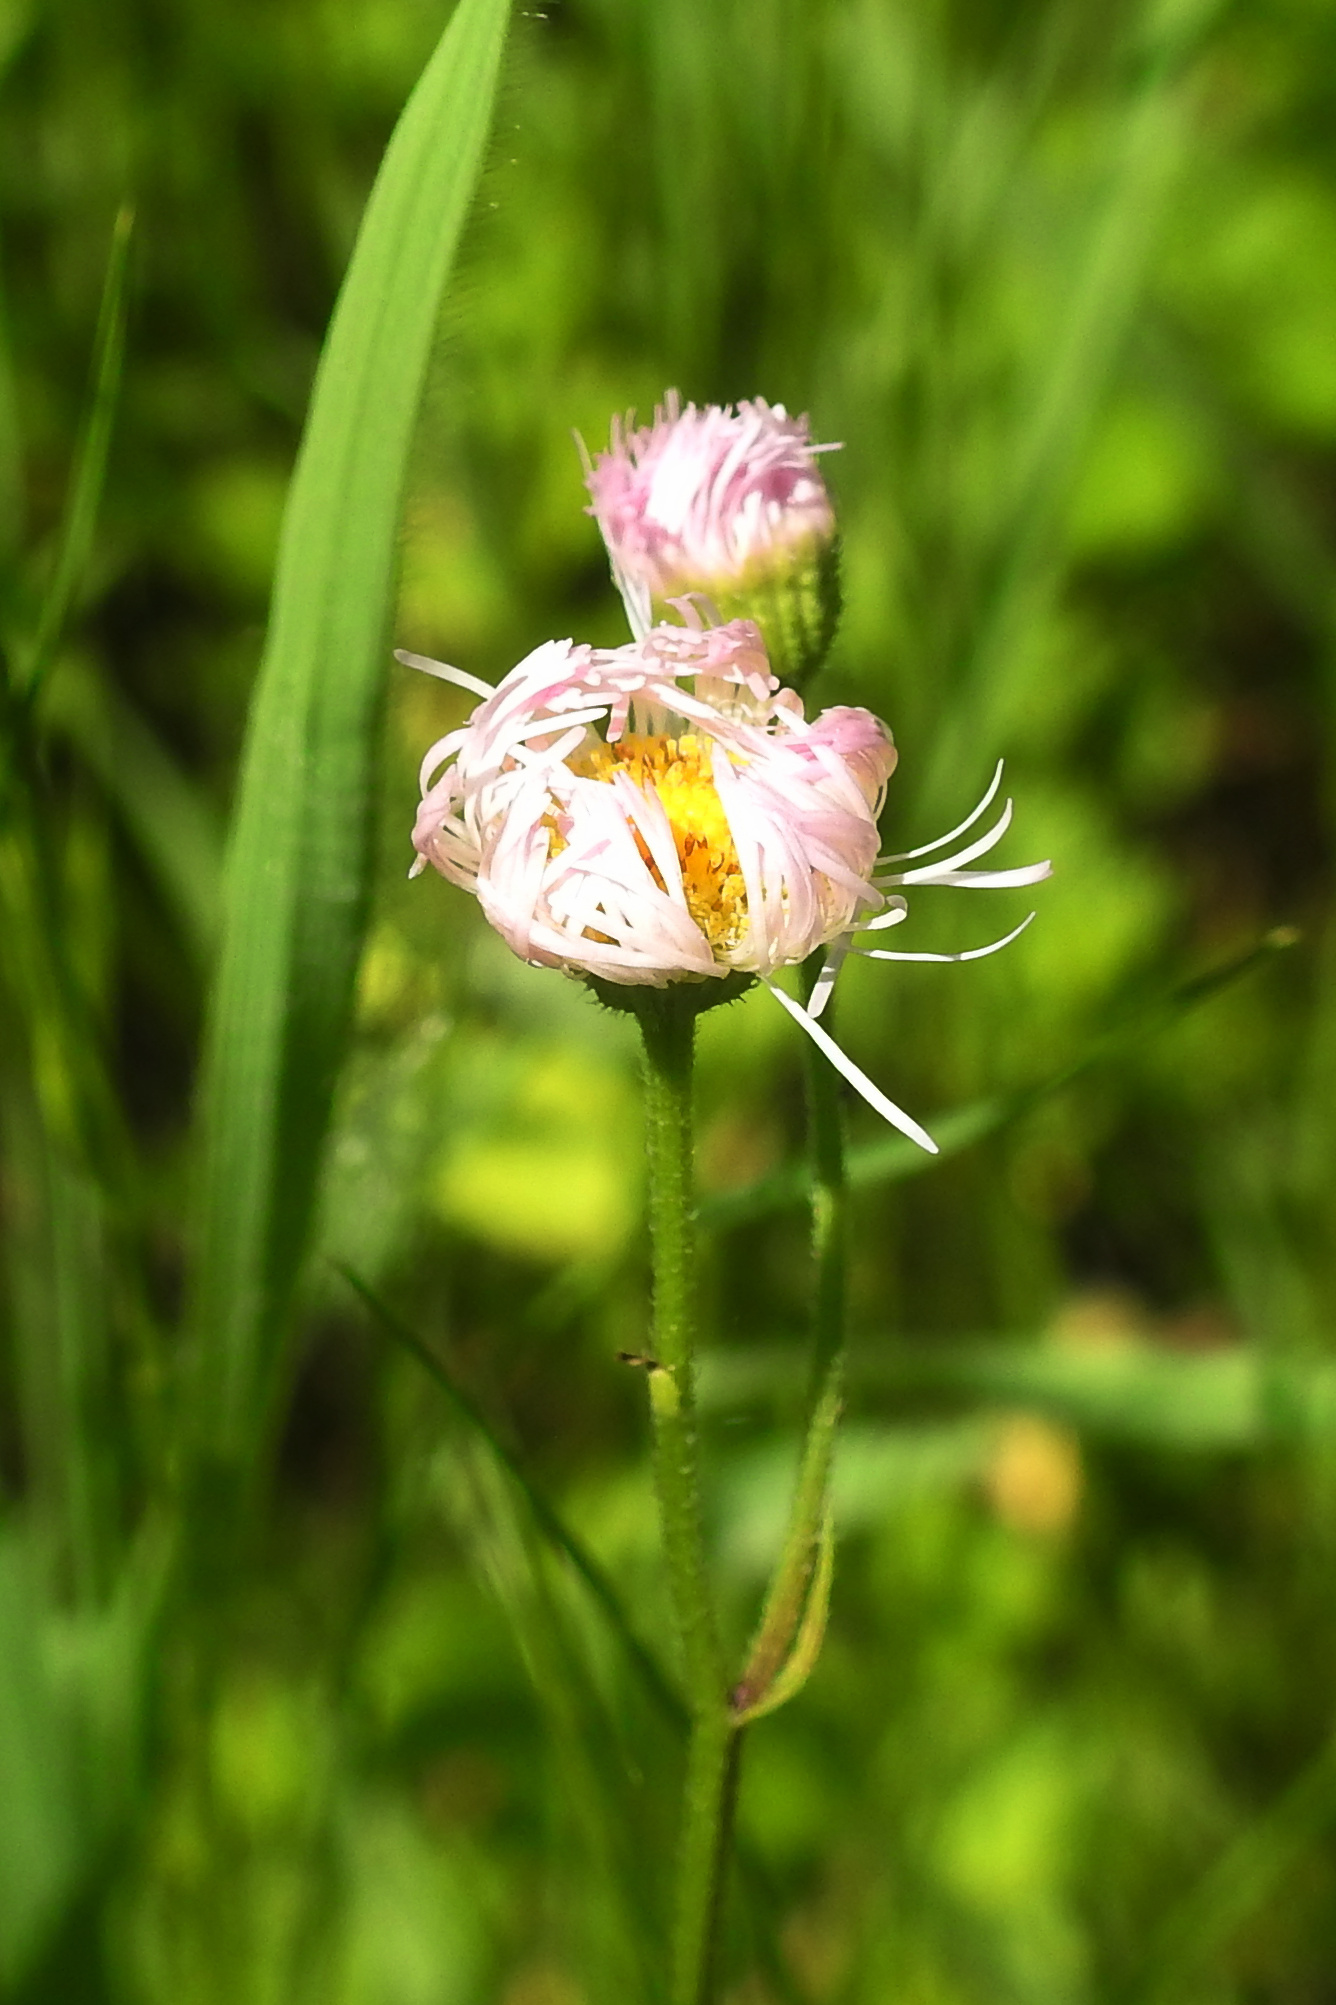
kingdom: Plantae
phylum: Tracheophyta
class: Magnoliopsida
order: Asterales
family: Asteraceae
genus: Erigeron
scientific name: Erigeron philadelphicus
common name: Robin's-plantain
